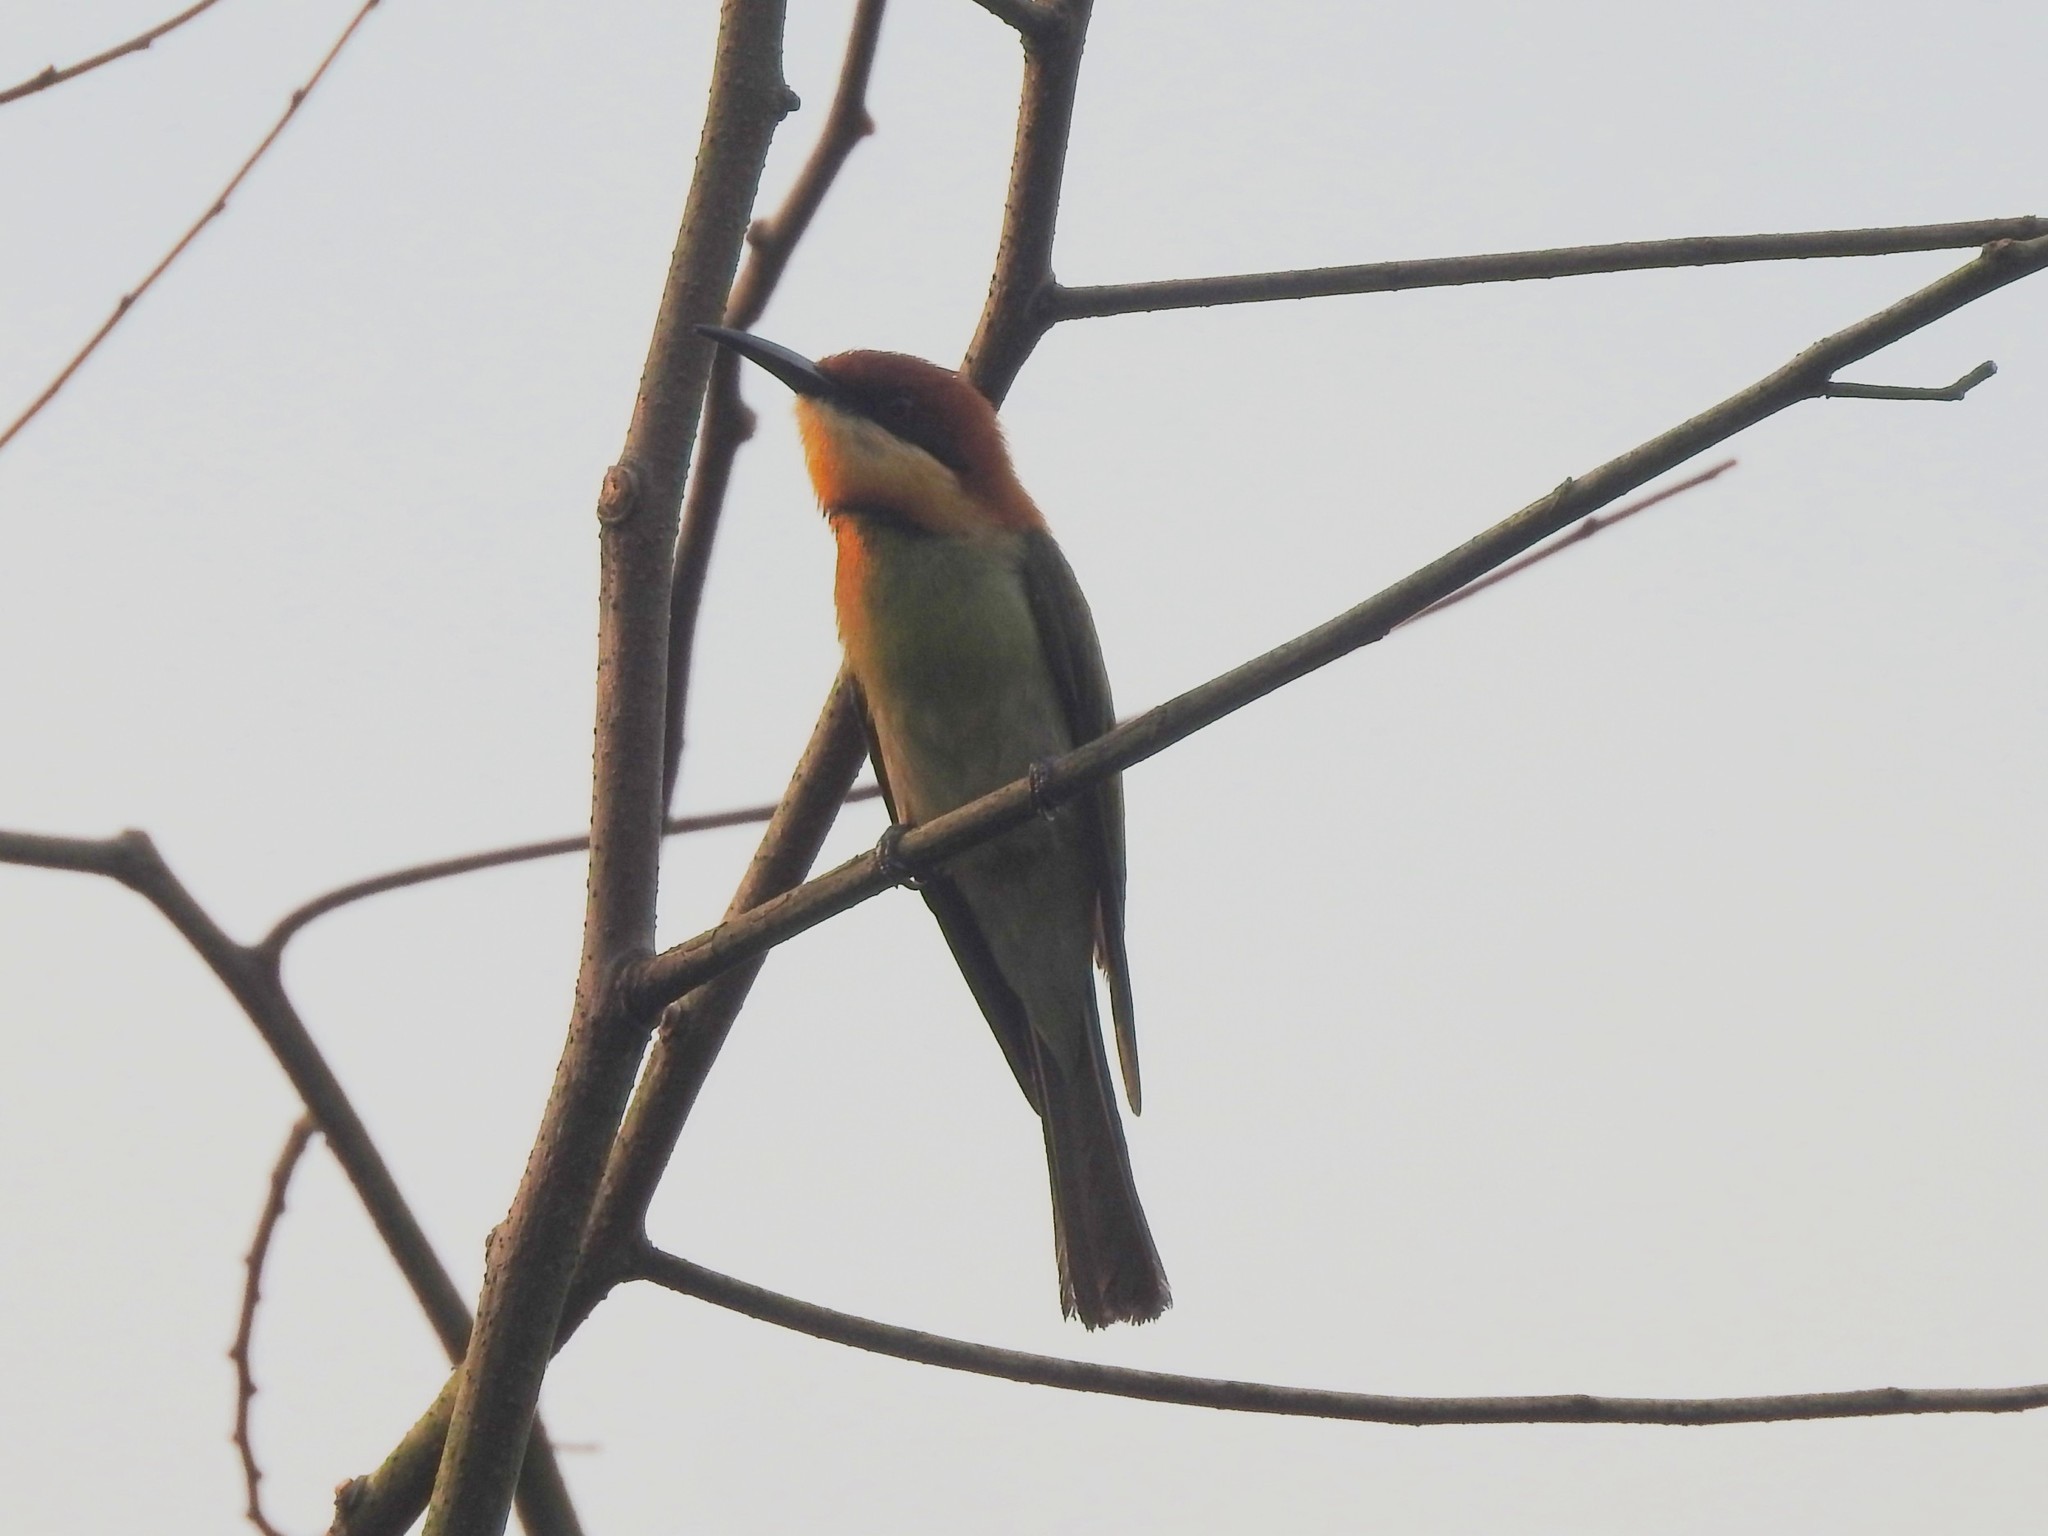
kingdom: Animalia
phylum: Chordata
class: Aves
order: Coraciiformes
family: Meropidae
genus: Merops
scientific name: Merops leschenaulti
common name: Chestnut-headed bee-eater
